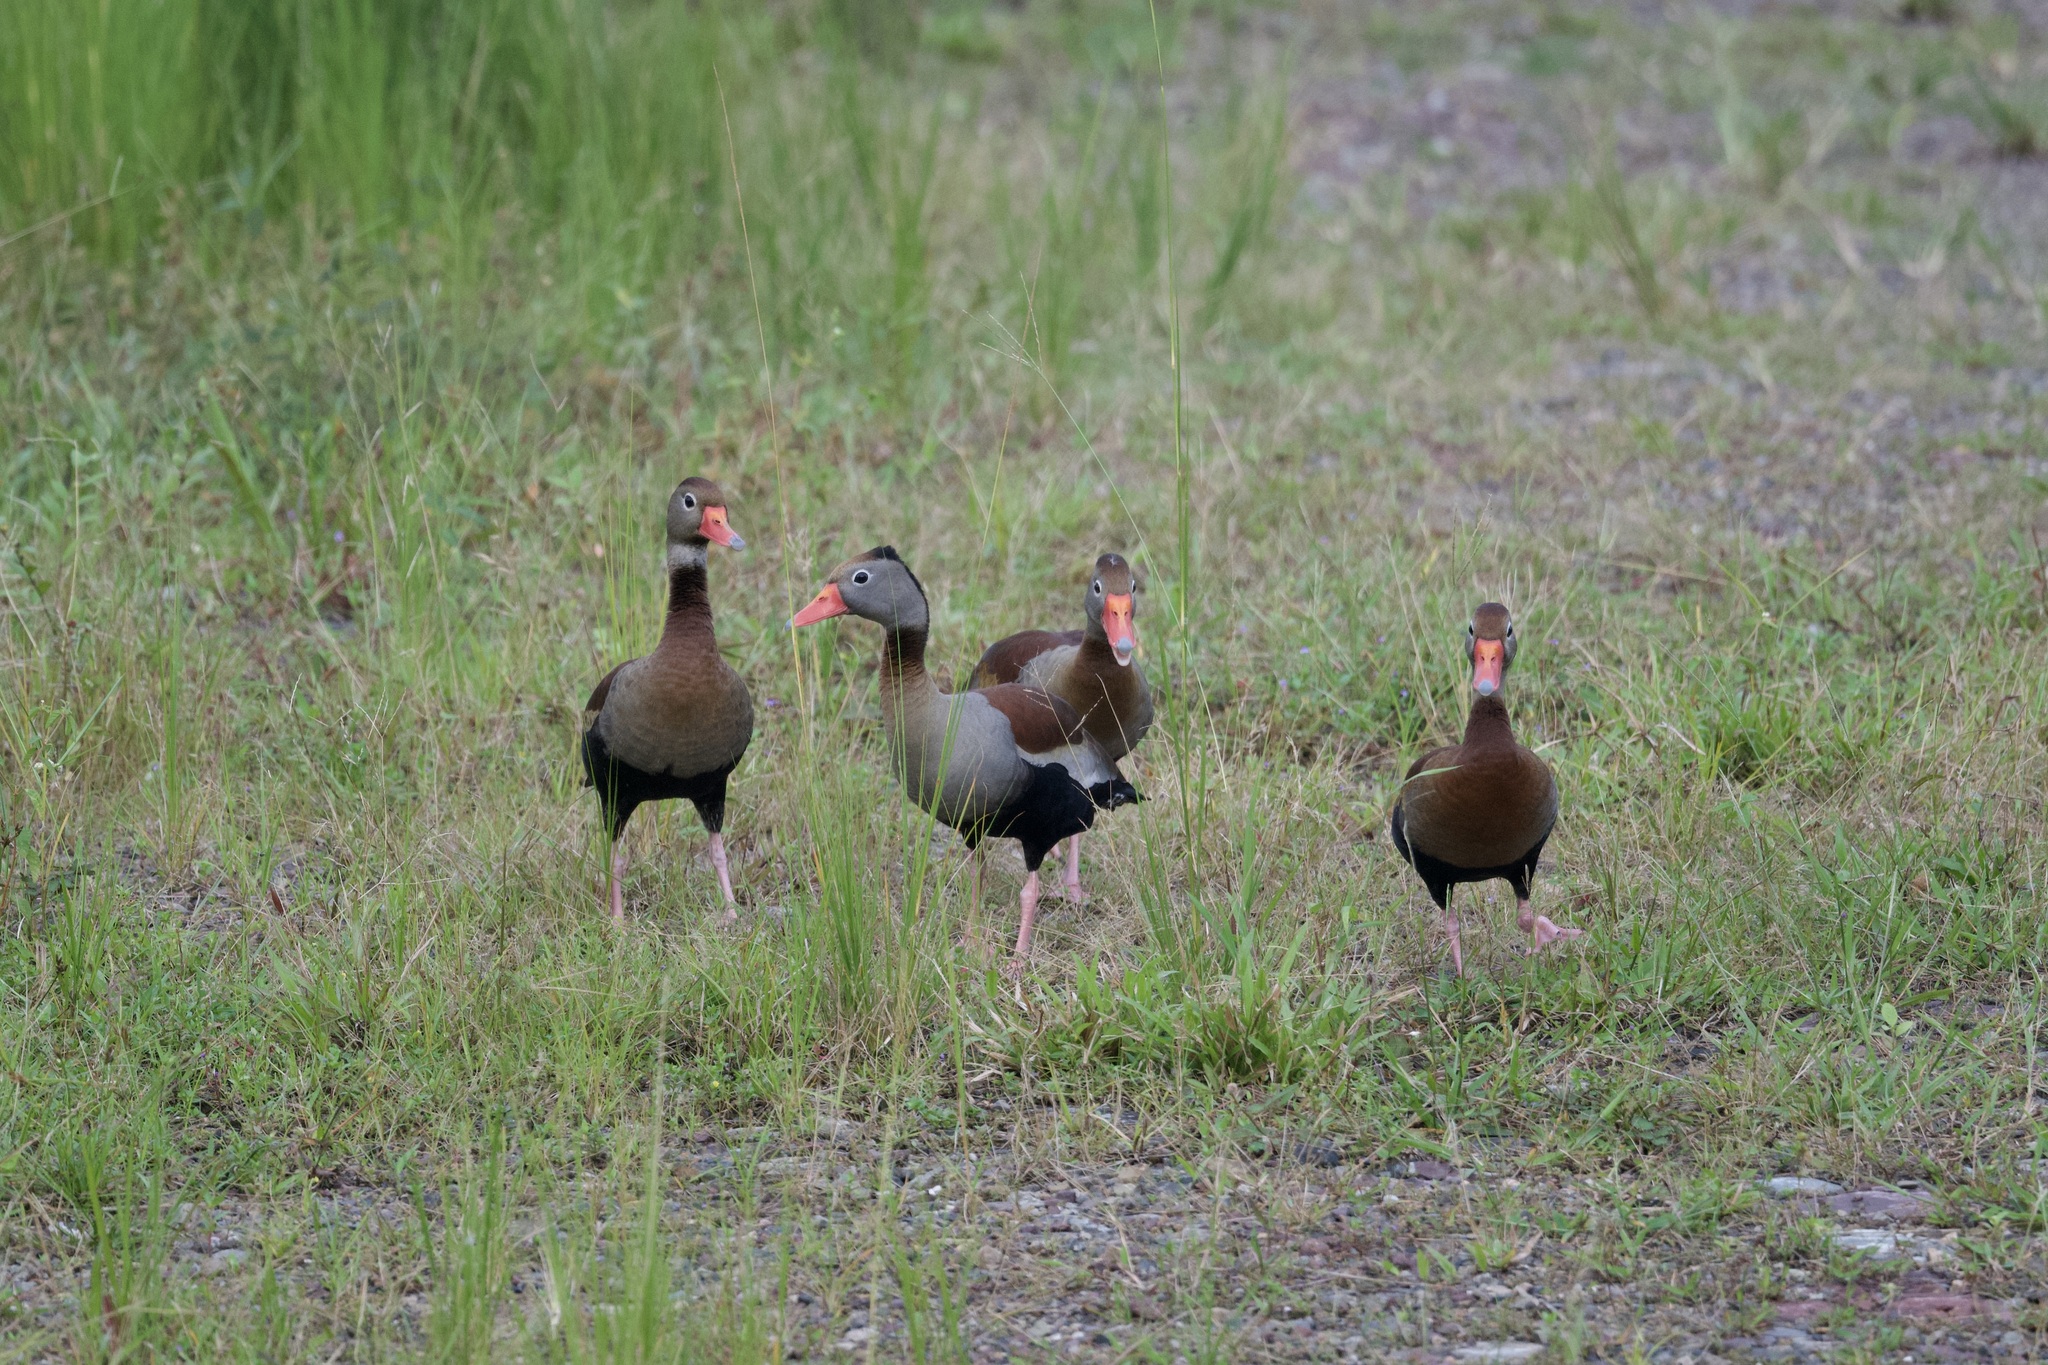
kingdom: Animalia
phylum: Chordata
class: Aves
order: Anseriformes
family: Anatidae
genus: Dendrocygna
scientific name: Dendrocygna autumnalis
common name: Black-bellied whistling duck
